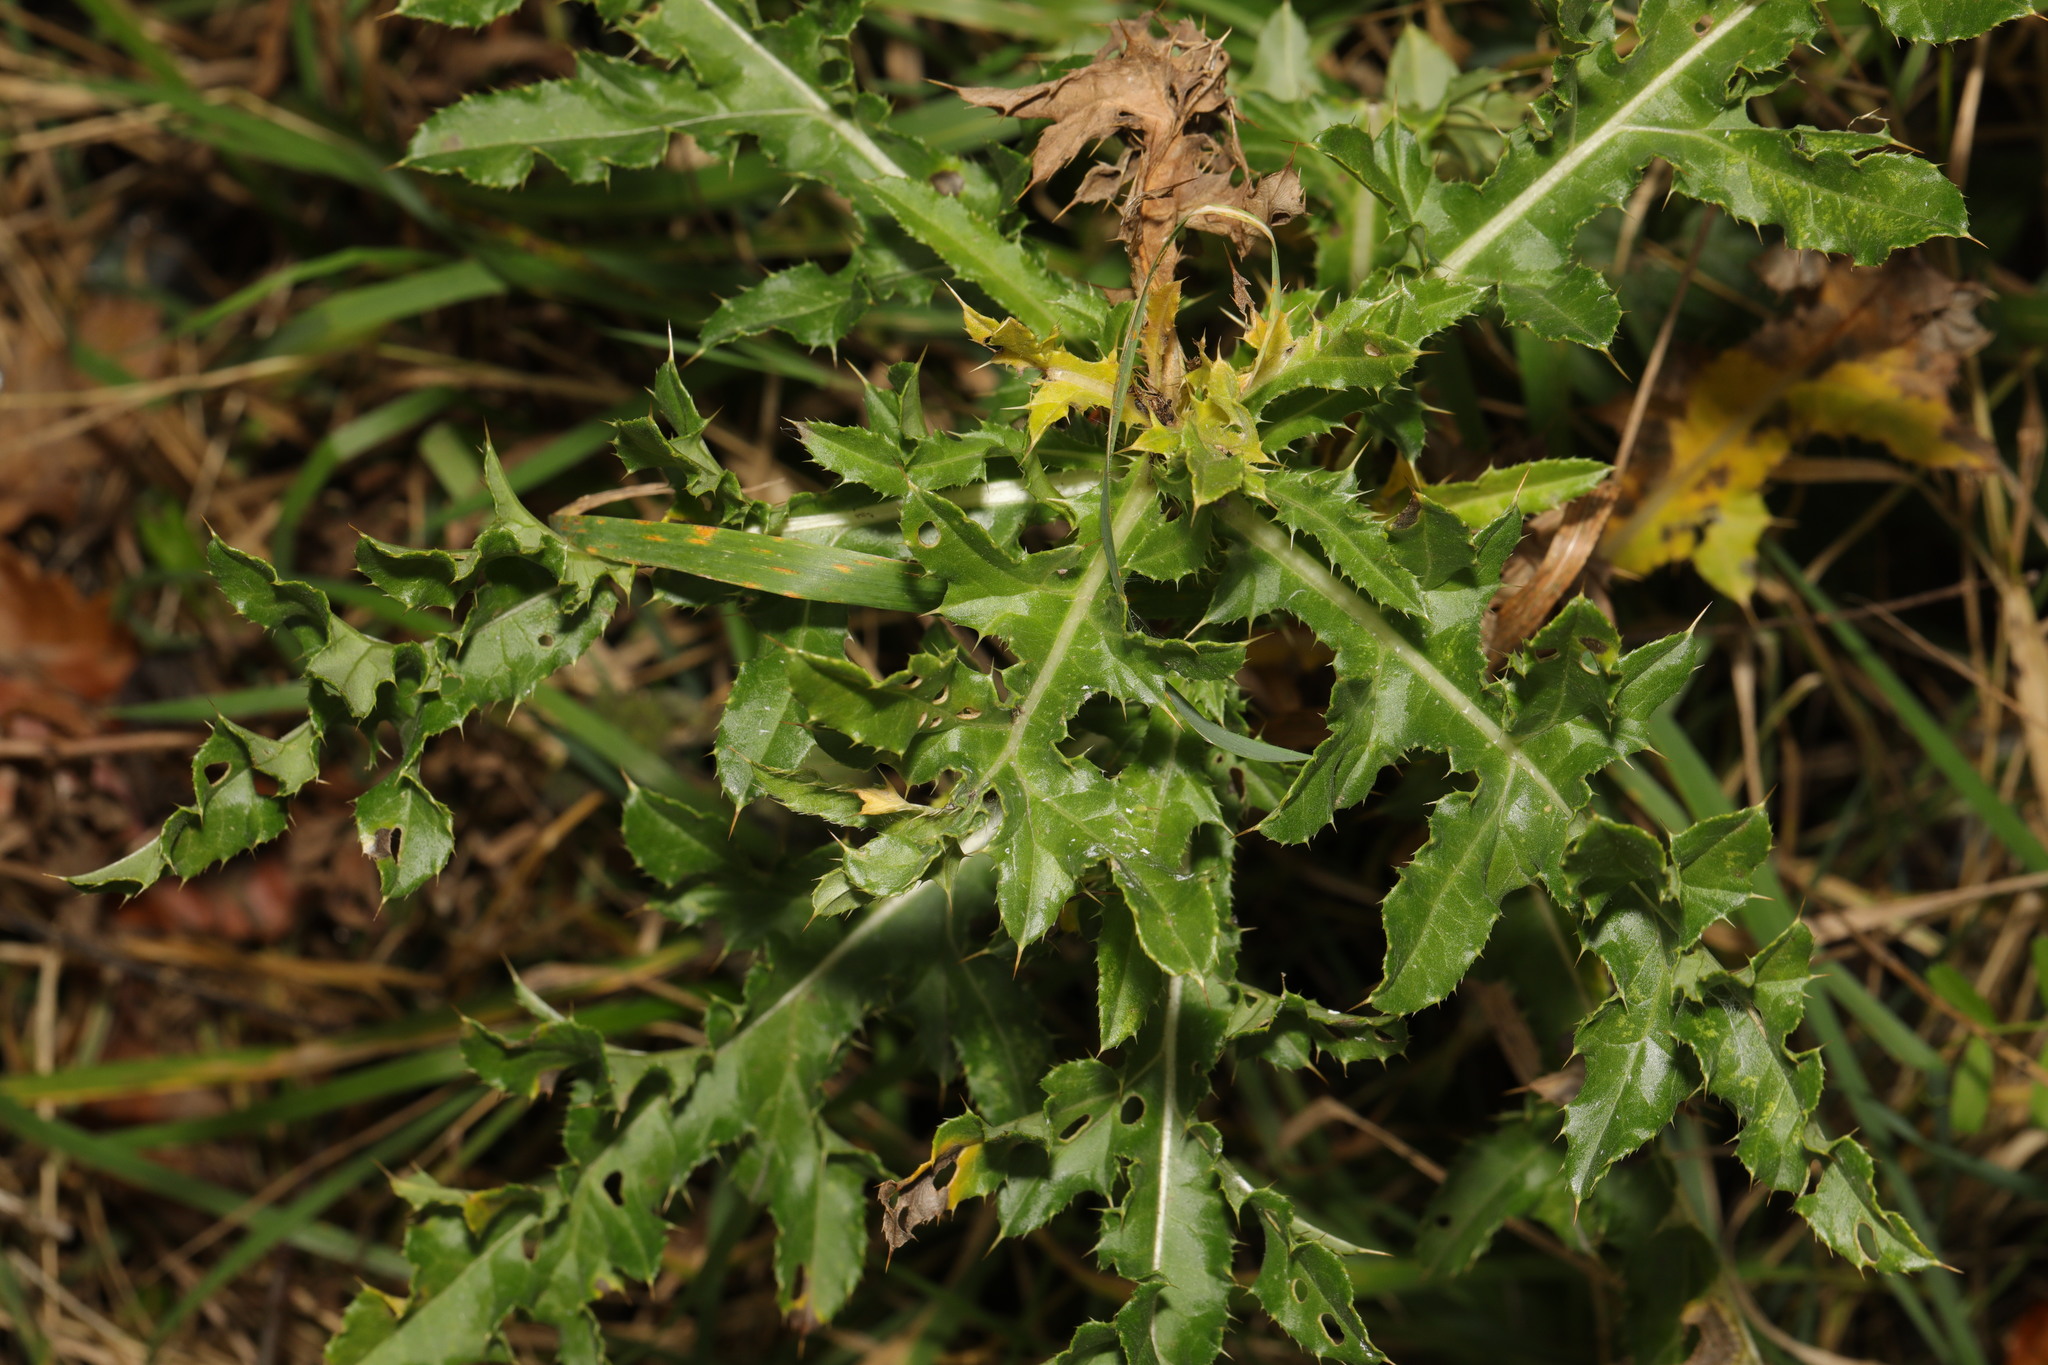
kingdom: Plantae
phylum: Tracheophyta
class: Magnoliopsida
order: Asterales
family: Asteraceae
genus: Cirsium
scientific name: Cirsium arvense
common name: Creeping thistle
